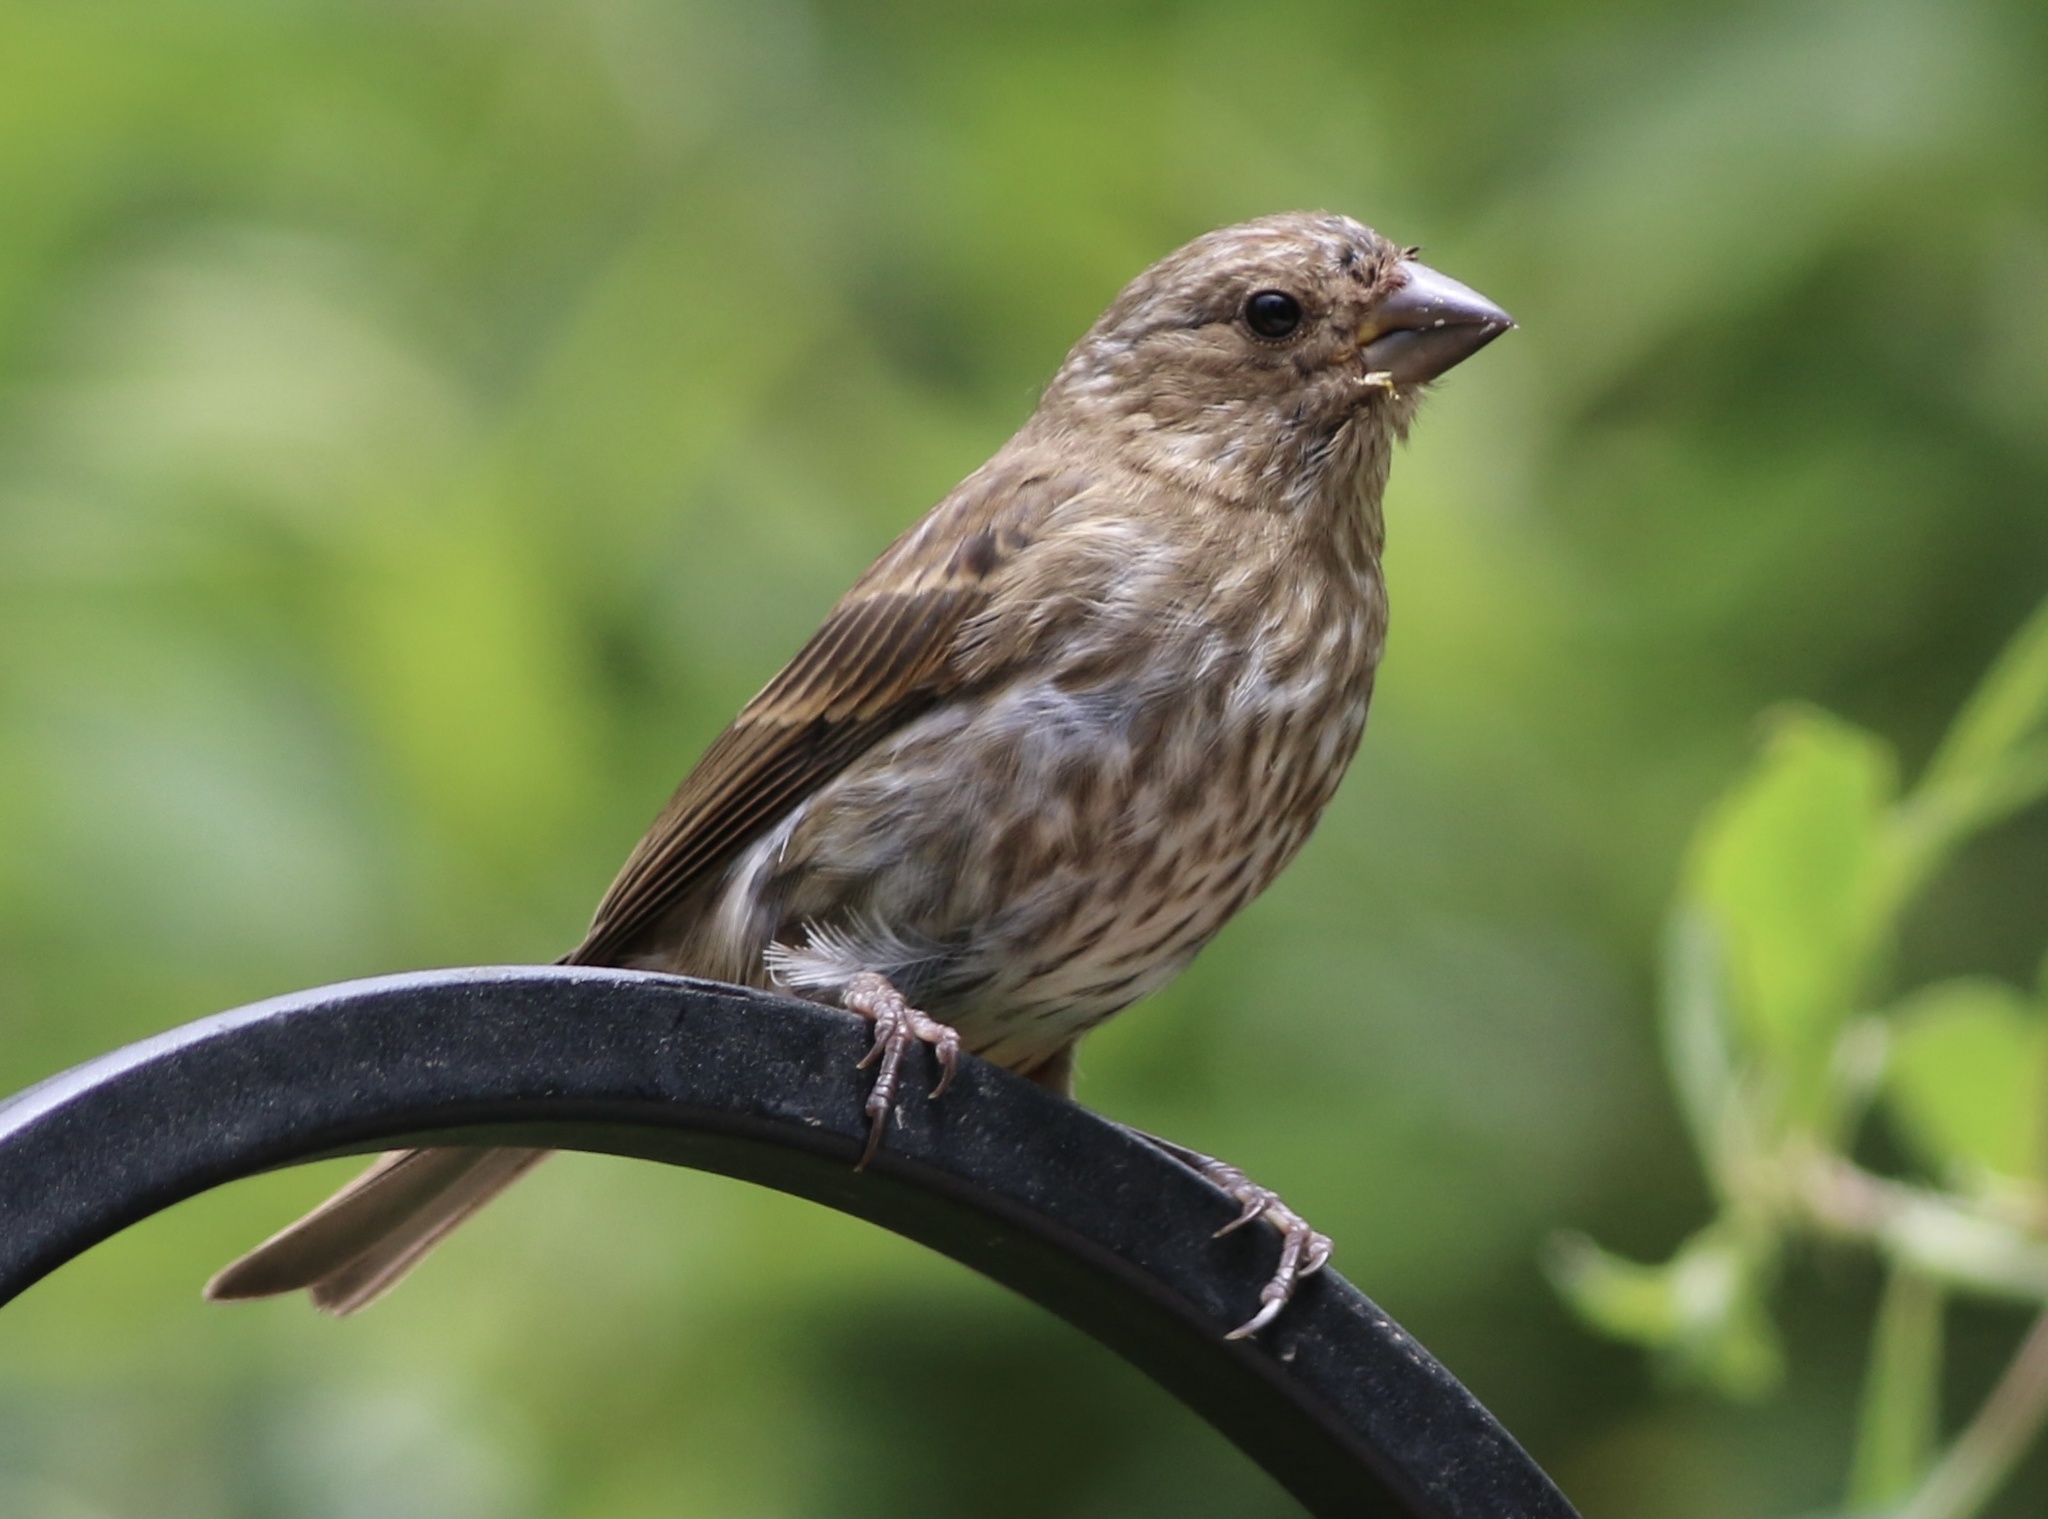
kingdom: Animalia
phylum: Chordata
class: Aves
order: Passeriformes
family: Fringillidae
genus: Haemorhous
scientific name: Haemorhous purpureus
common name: Purple finch
